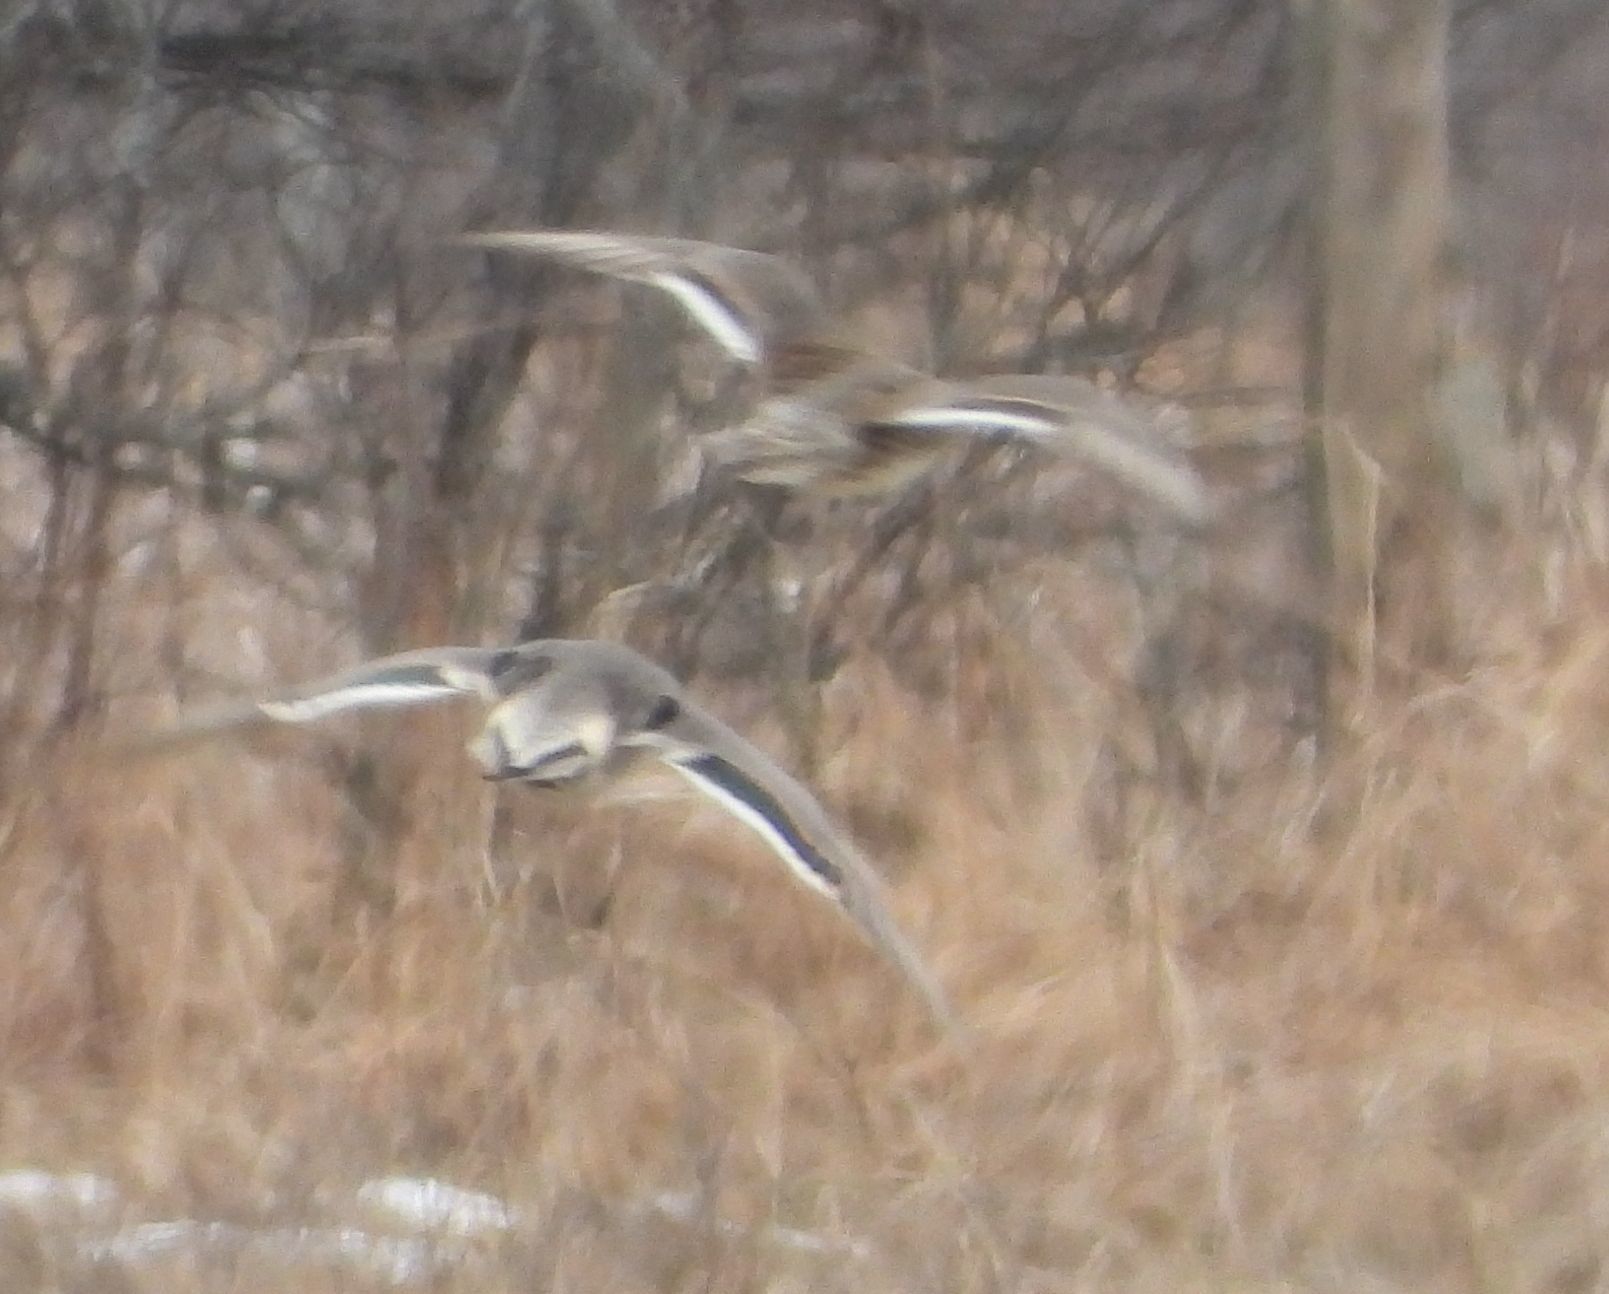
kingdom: Animalia
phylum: Chordata
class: Aves
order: Anseriformes
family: Anatidae
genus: Anas
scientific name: Anas acuta
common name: Northern pintail
